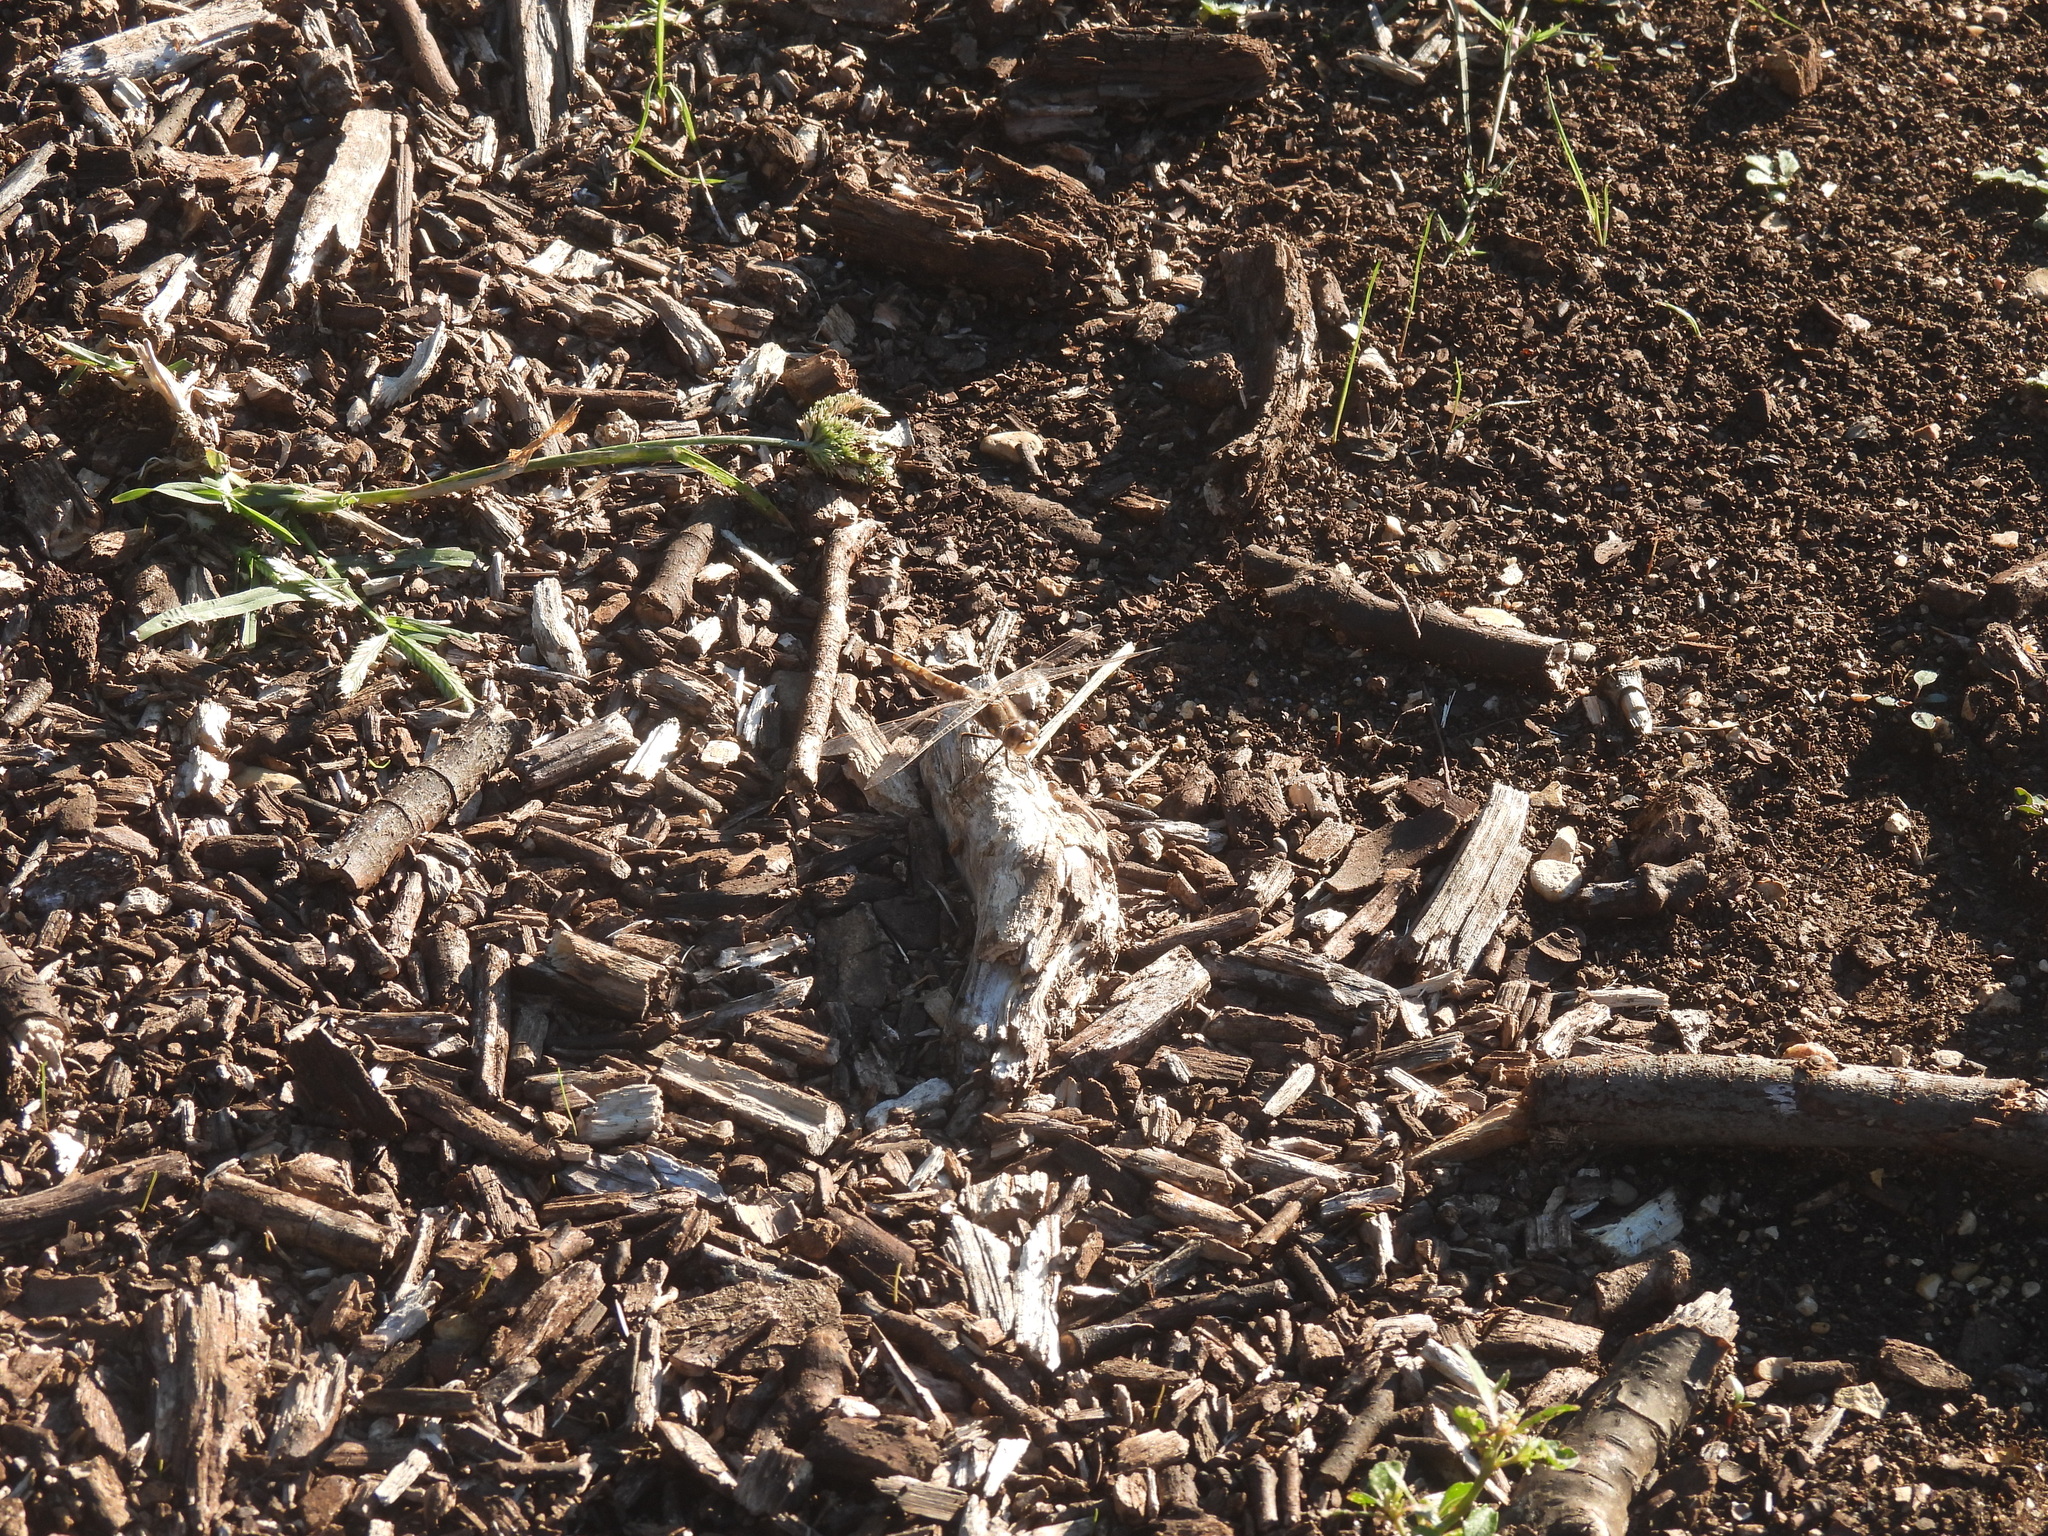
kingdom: Animalia
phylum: Arthropoda
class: Insecta
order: Odonata
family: Libellulidae
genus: Sympetrum
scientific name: Sympetrum corruptum
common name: Variegated meadowhawk
